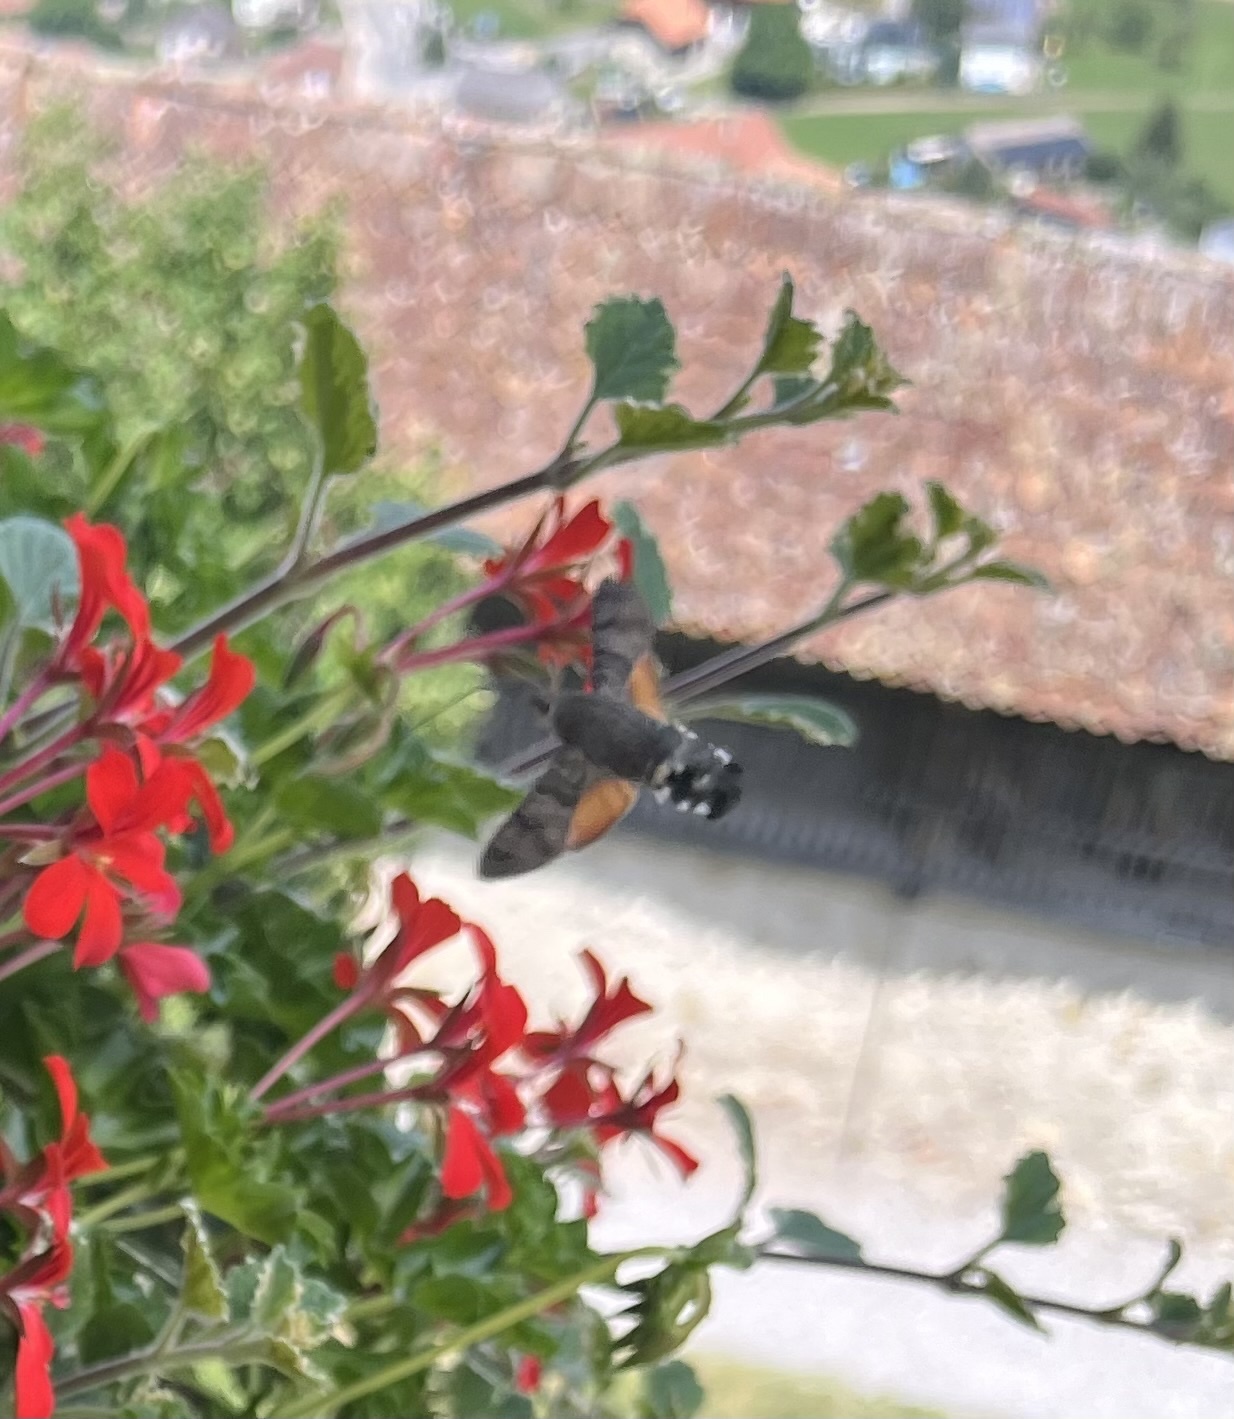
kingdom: Animalia
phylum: Arthropoda
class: Insecta
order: Lepidoptera
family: Sphingidae
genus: Macroglossum
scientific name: Macroglossum stellatarum
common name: Humming-bird hawk-moth
